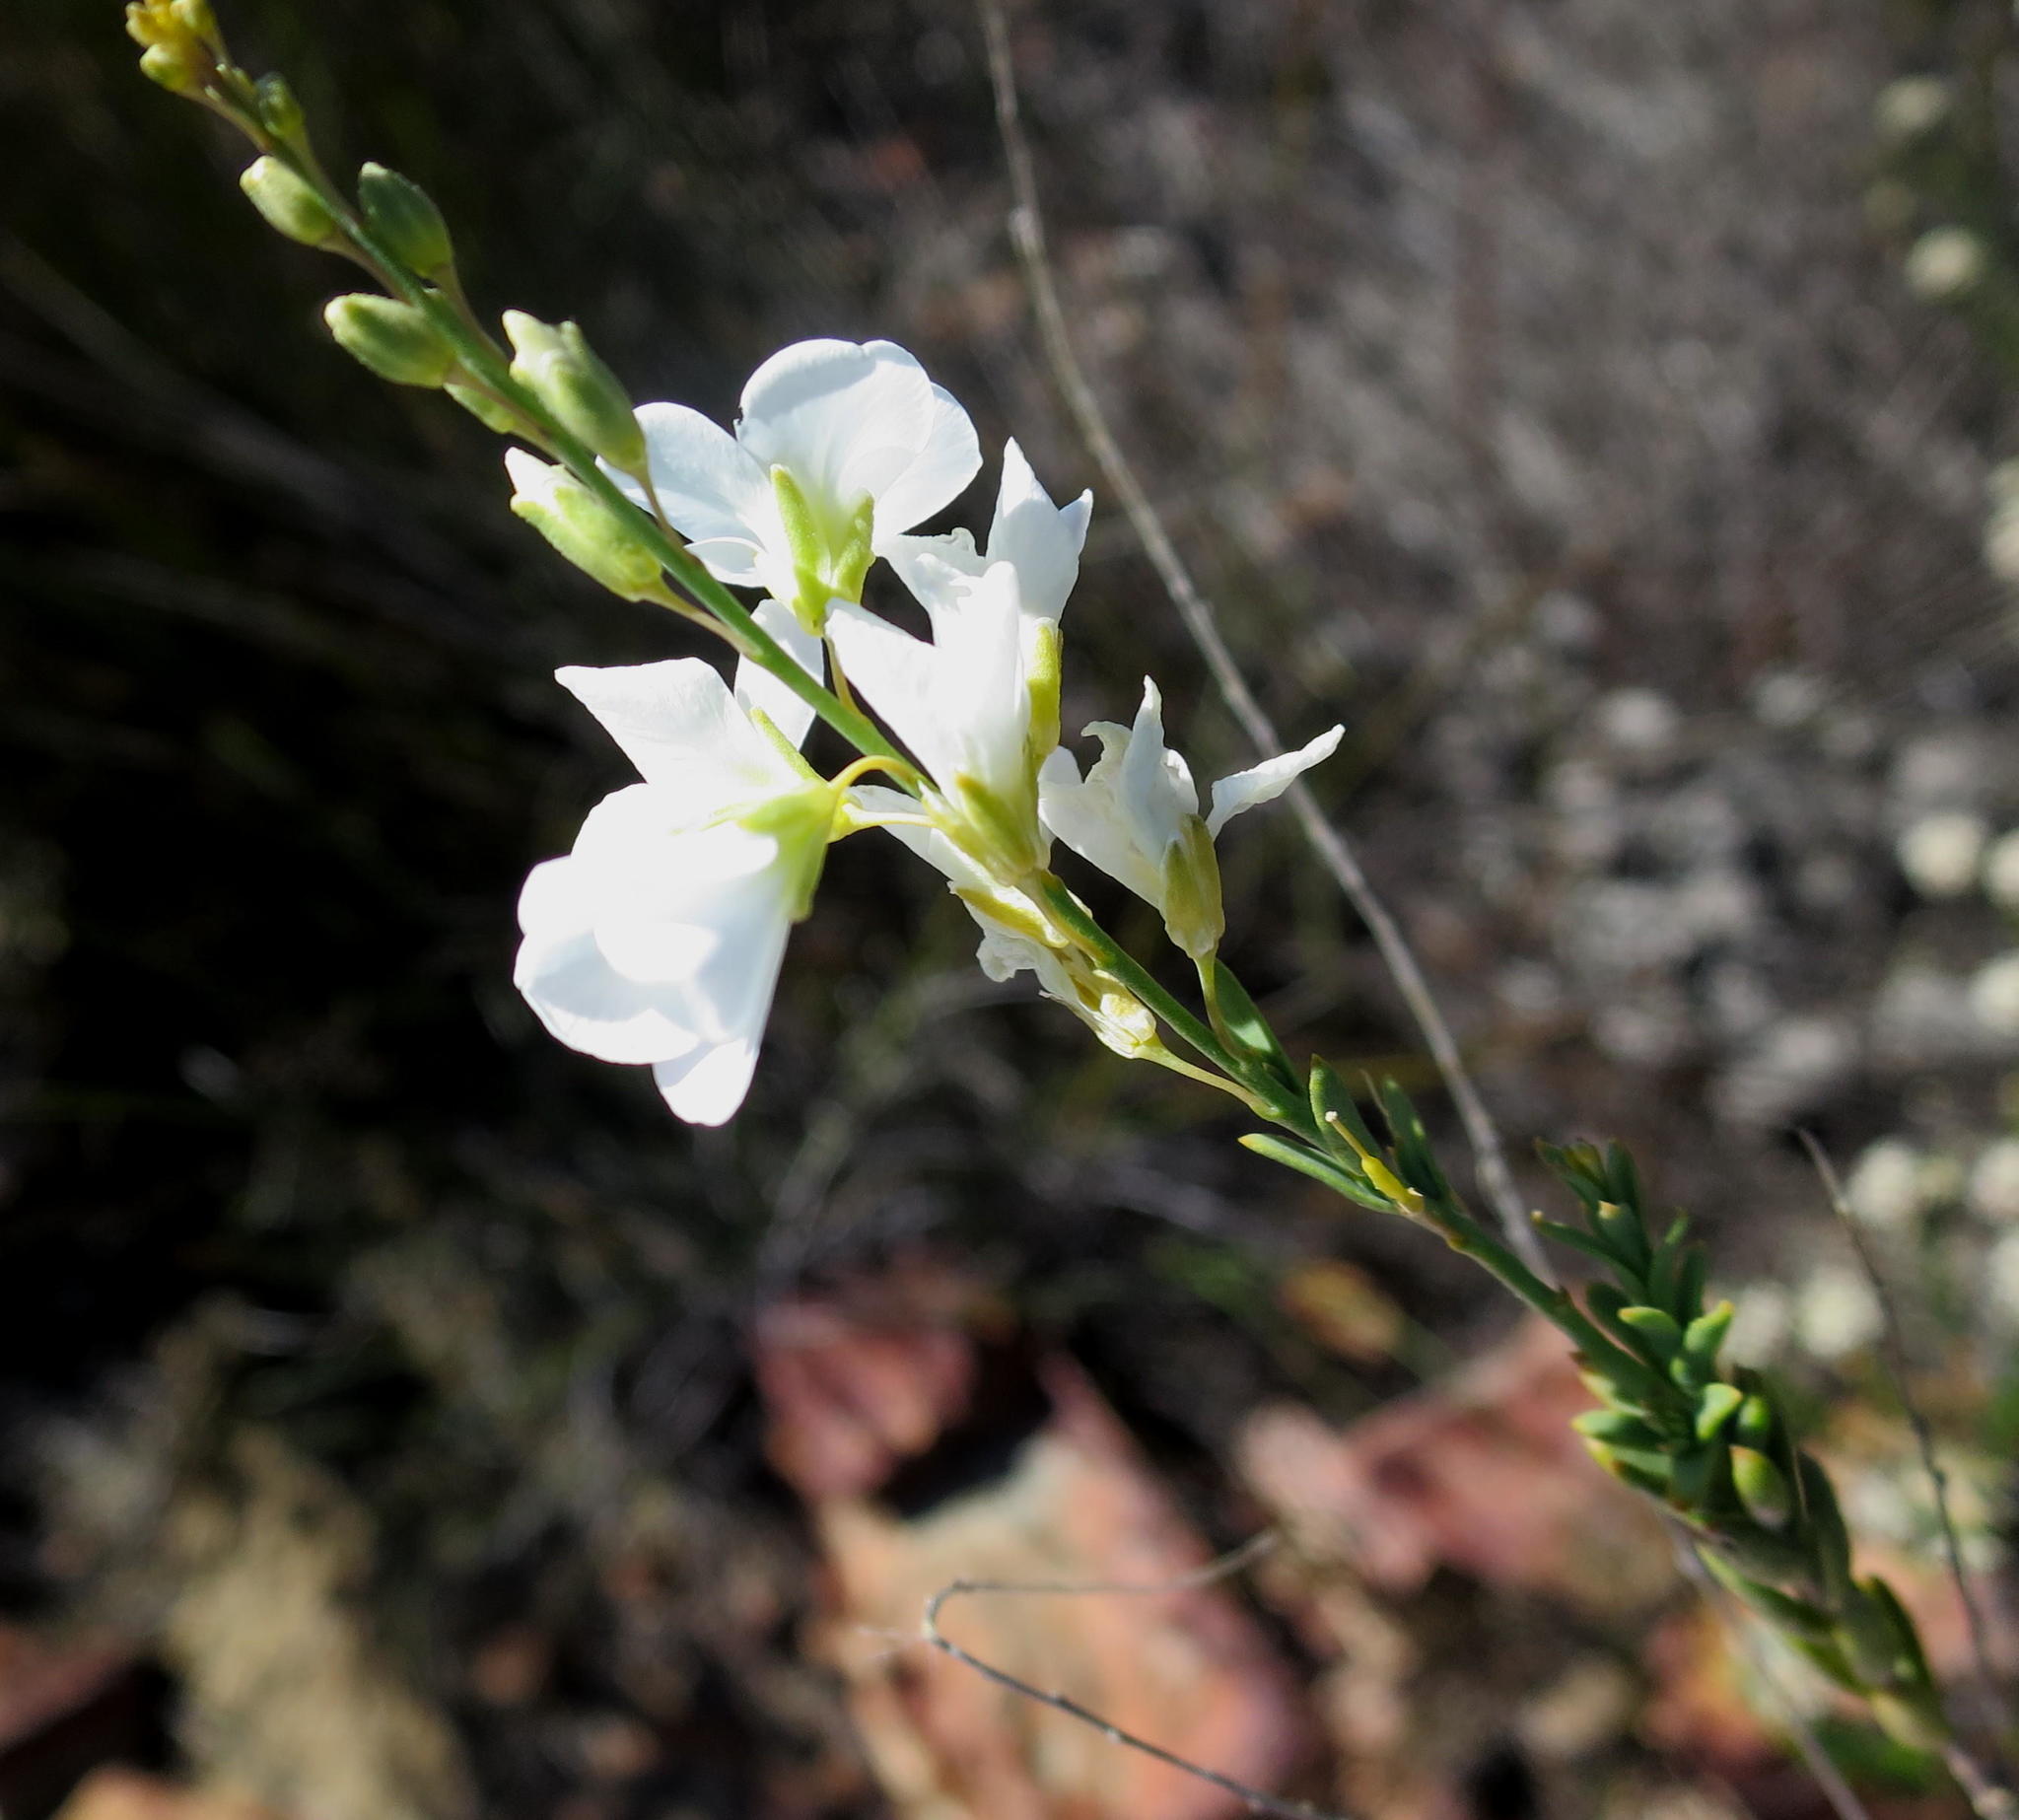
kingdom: Plantae
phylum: Tracheophyta
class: Magnoliopsida
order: Brassicales
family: Brassicaceae
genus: Heliophila
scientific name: Heliophila glauca
